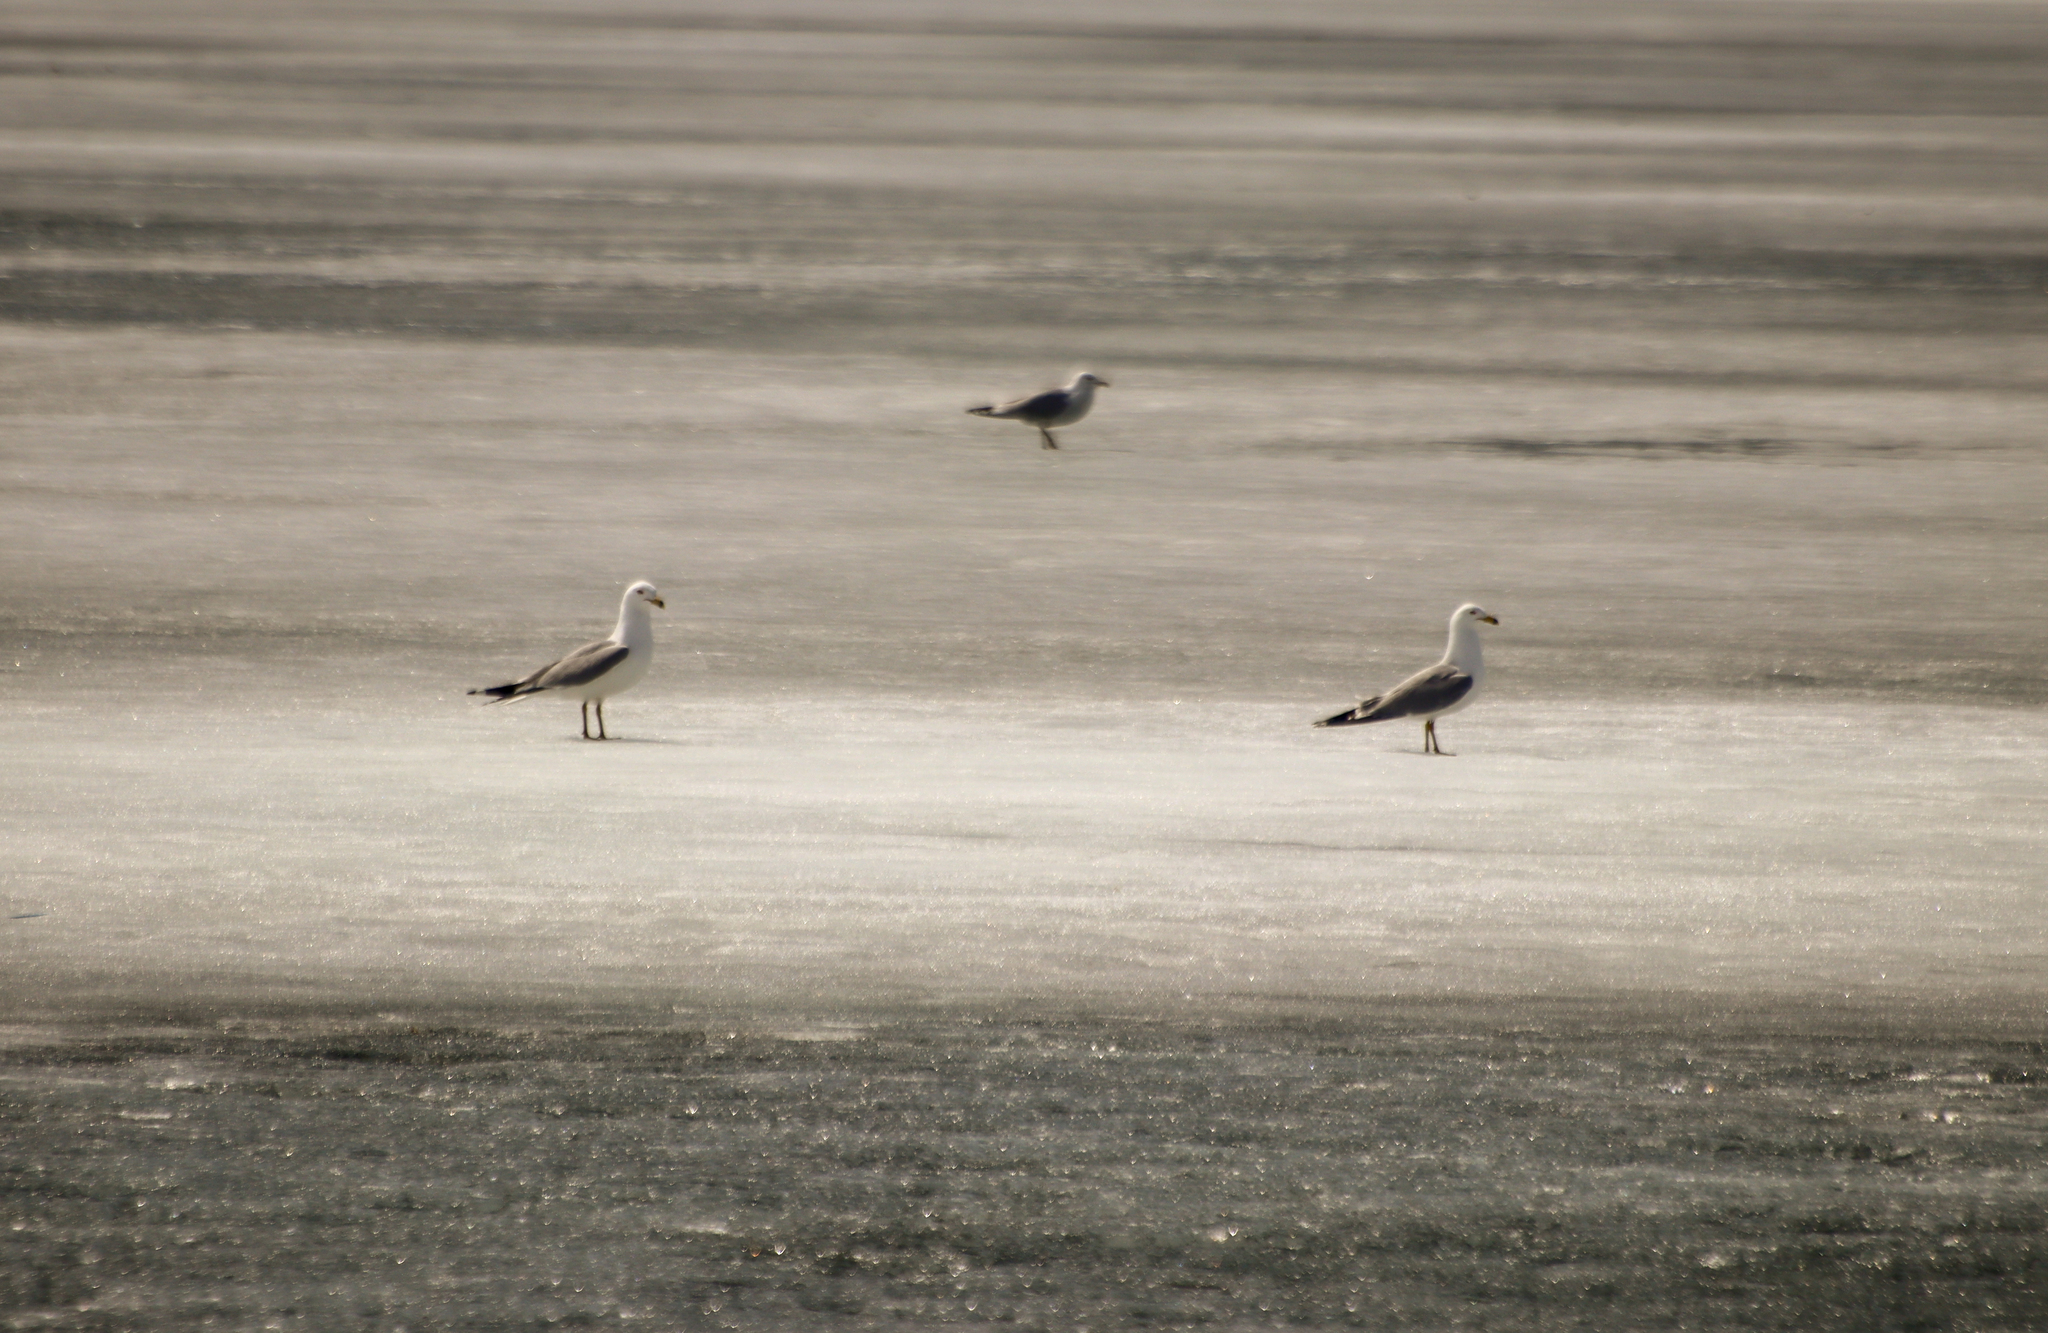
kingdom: Animalia
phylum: Chordata
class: Aves
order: Charadriiformes
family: Laridae
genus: Larus
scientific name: Larus delawarensis
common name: Ring-billed gull
